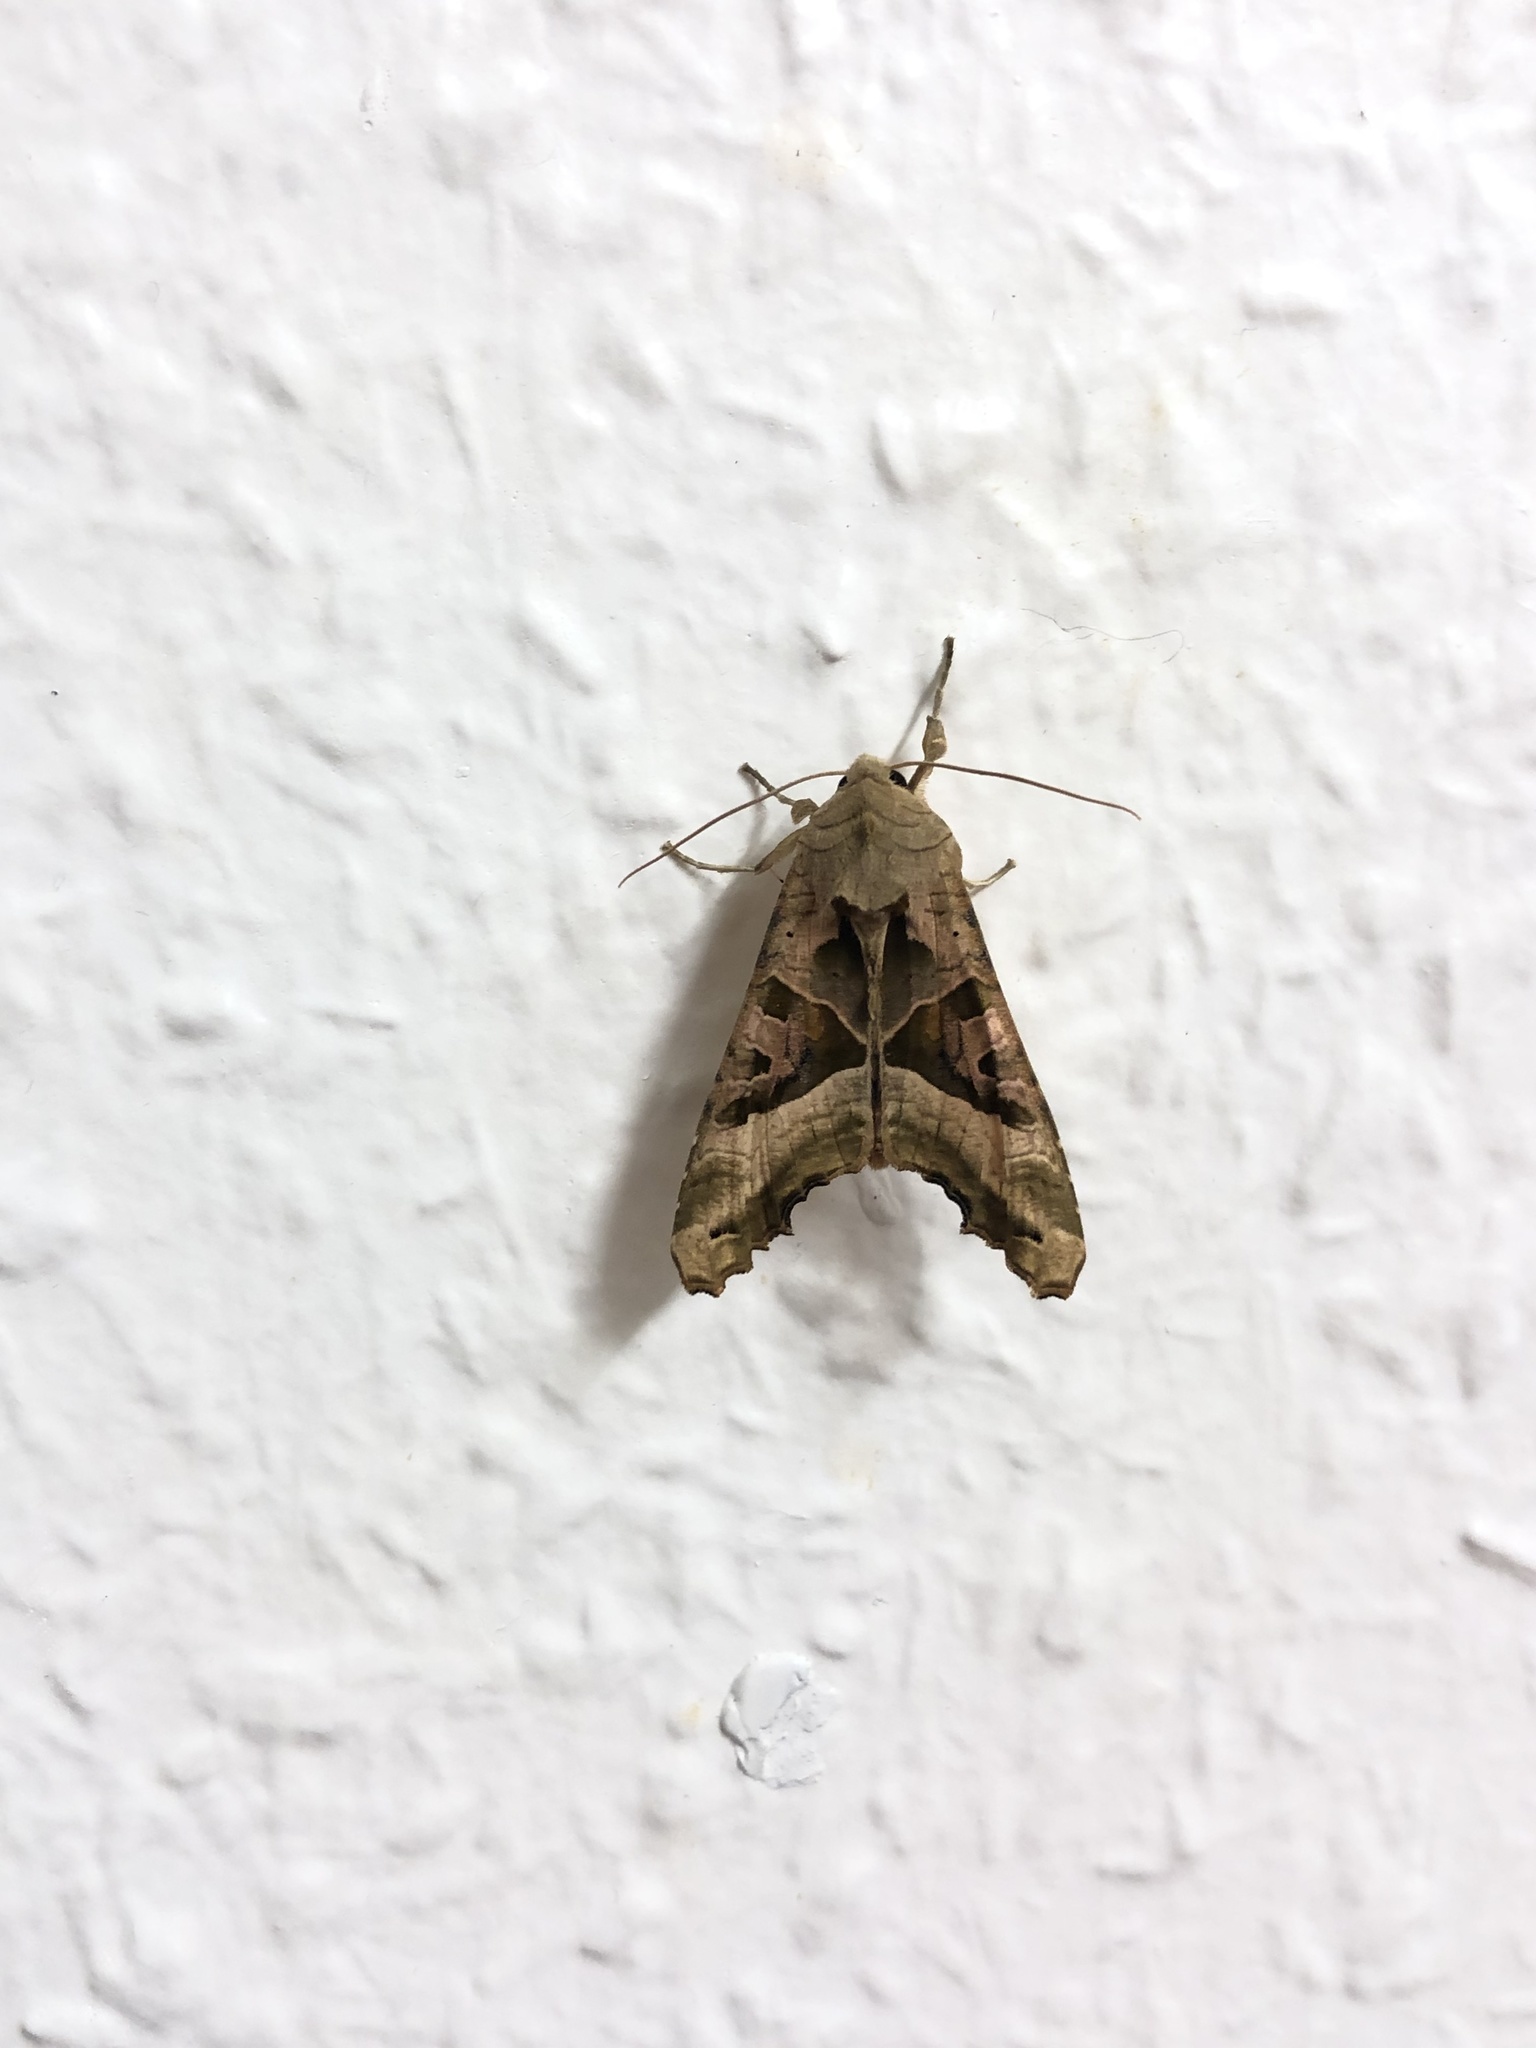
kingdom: Animalia
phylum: Arthropoda
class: Insecta
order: Lepidoptera
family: Noctuidae
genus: Phlogophora
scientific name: Phlogophora meticulosa
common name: Angle shades
